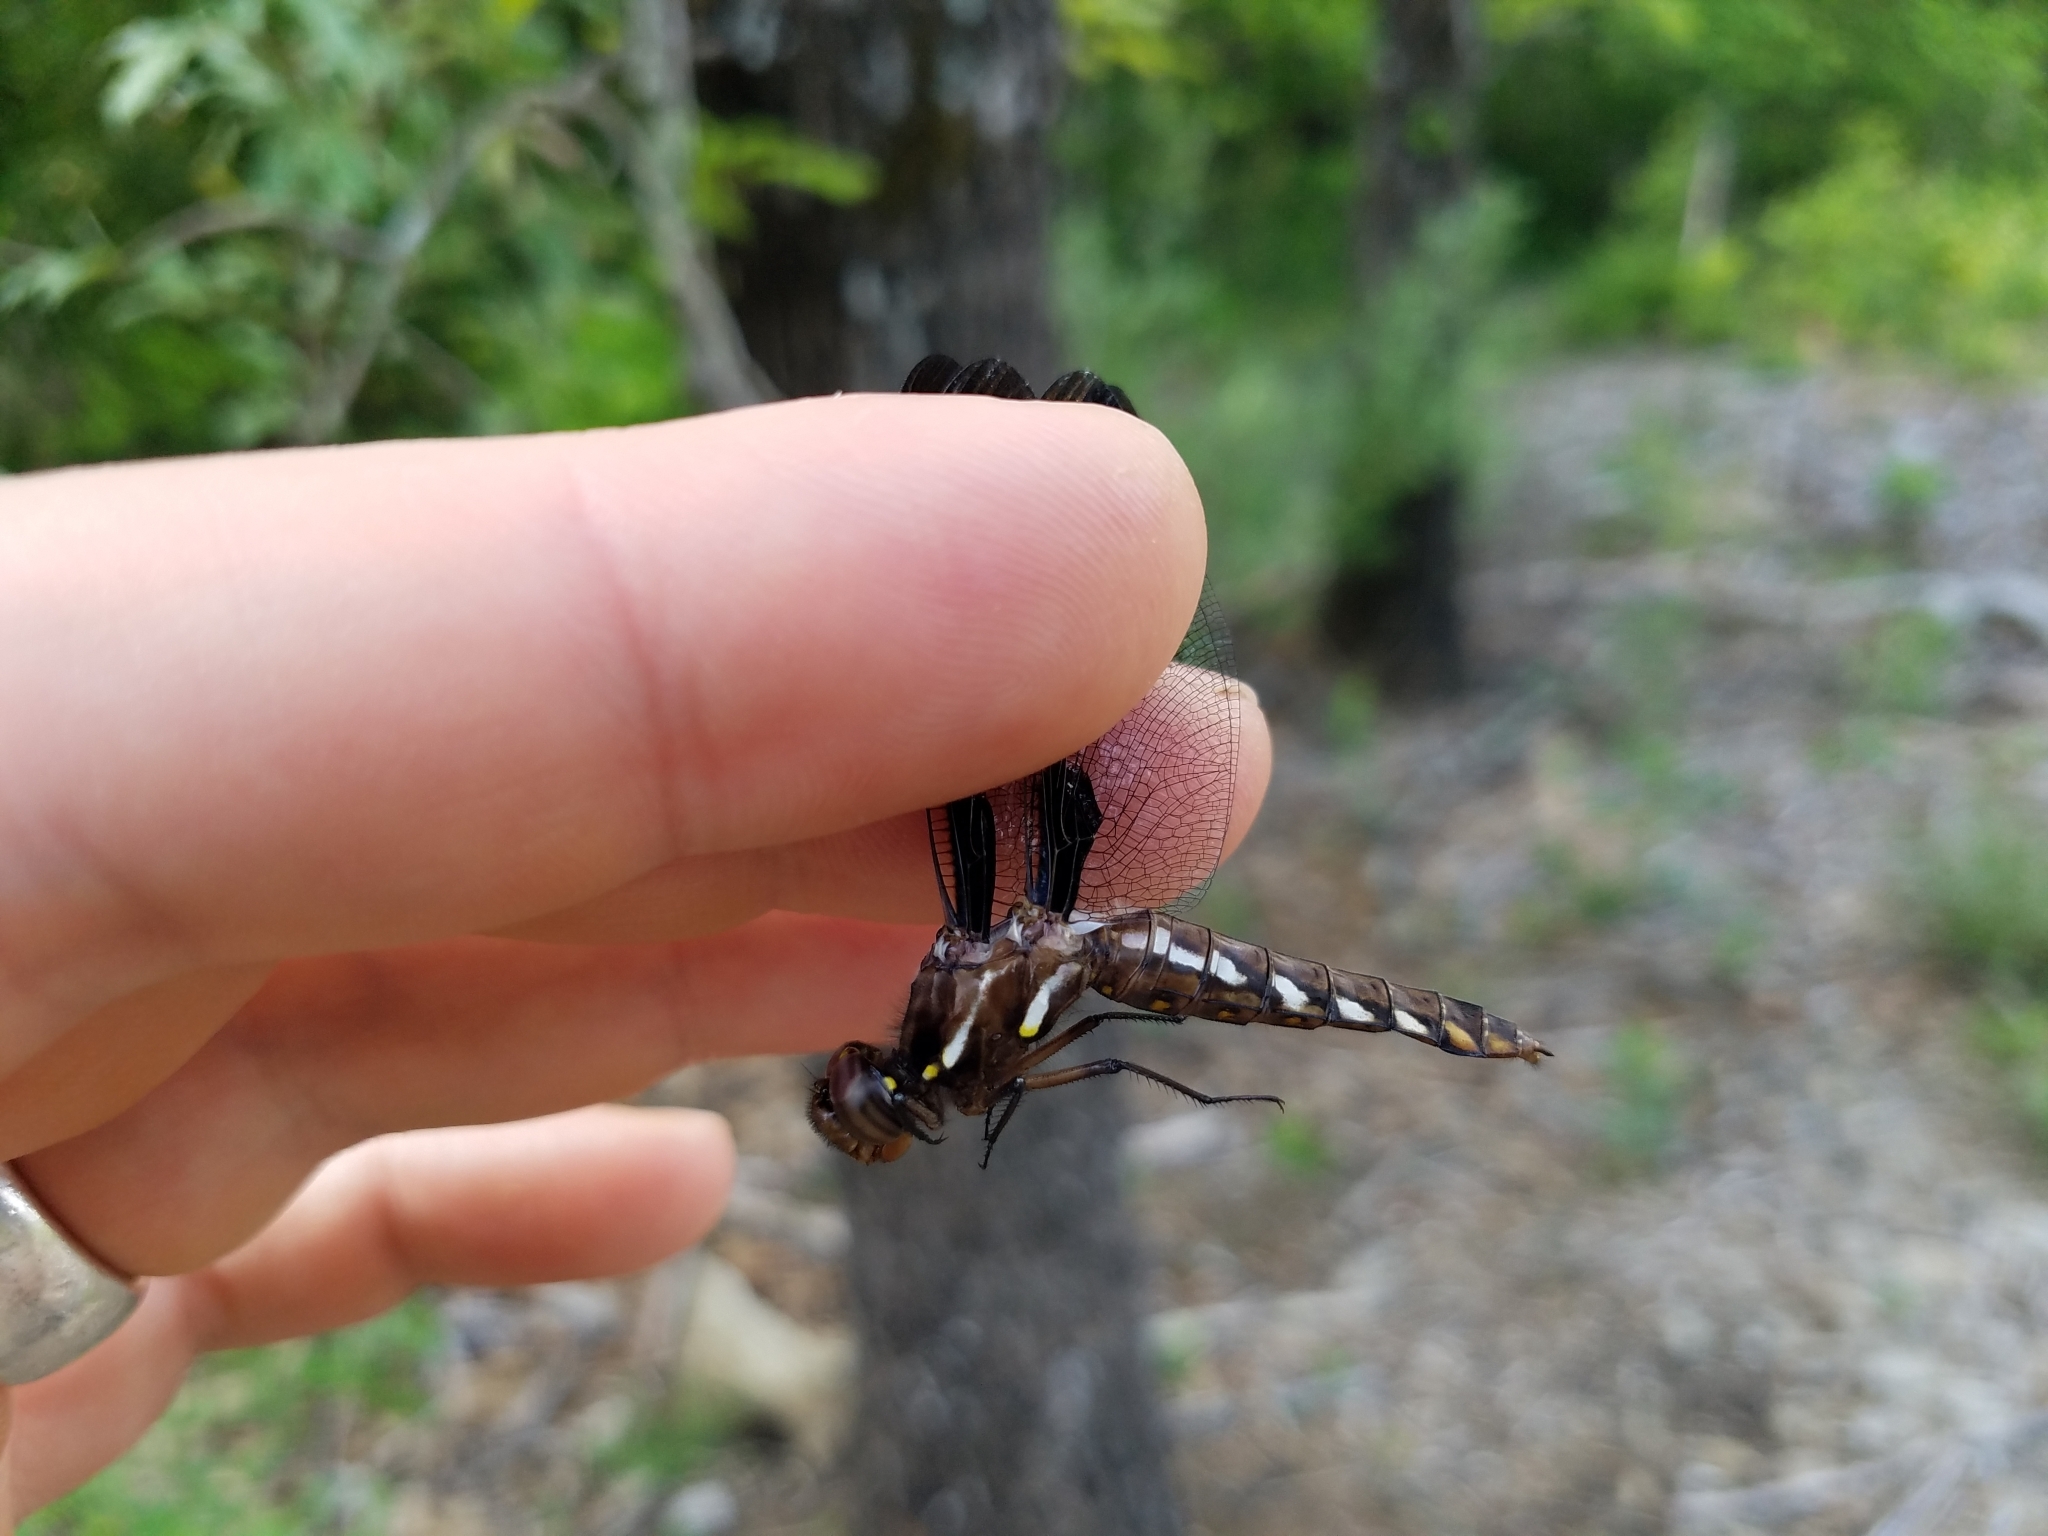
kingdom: Animalia
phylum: Arthropoda
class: Insecta
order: Odonata
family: Libellulidae
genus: Plathemis
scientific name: Plathemis lydia
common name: Common whitetail
